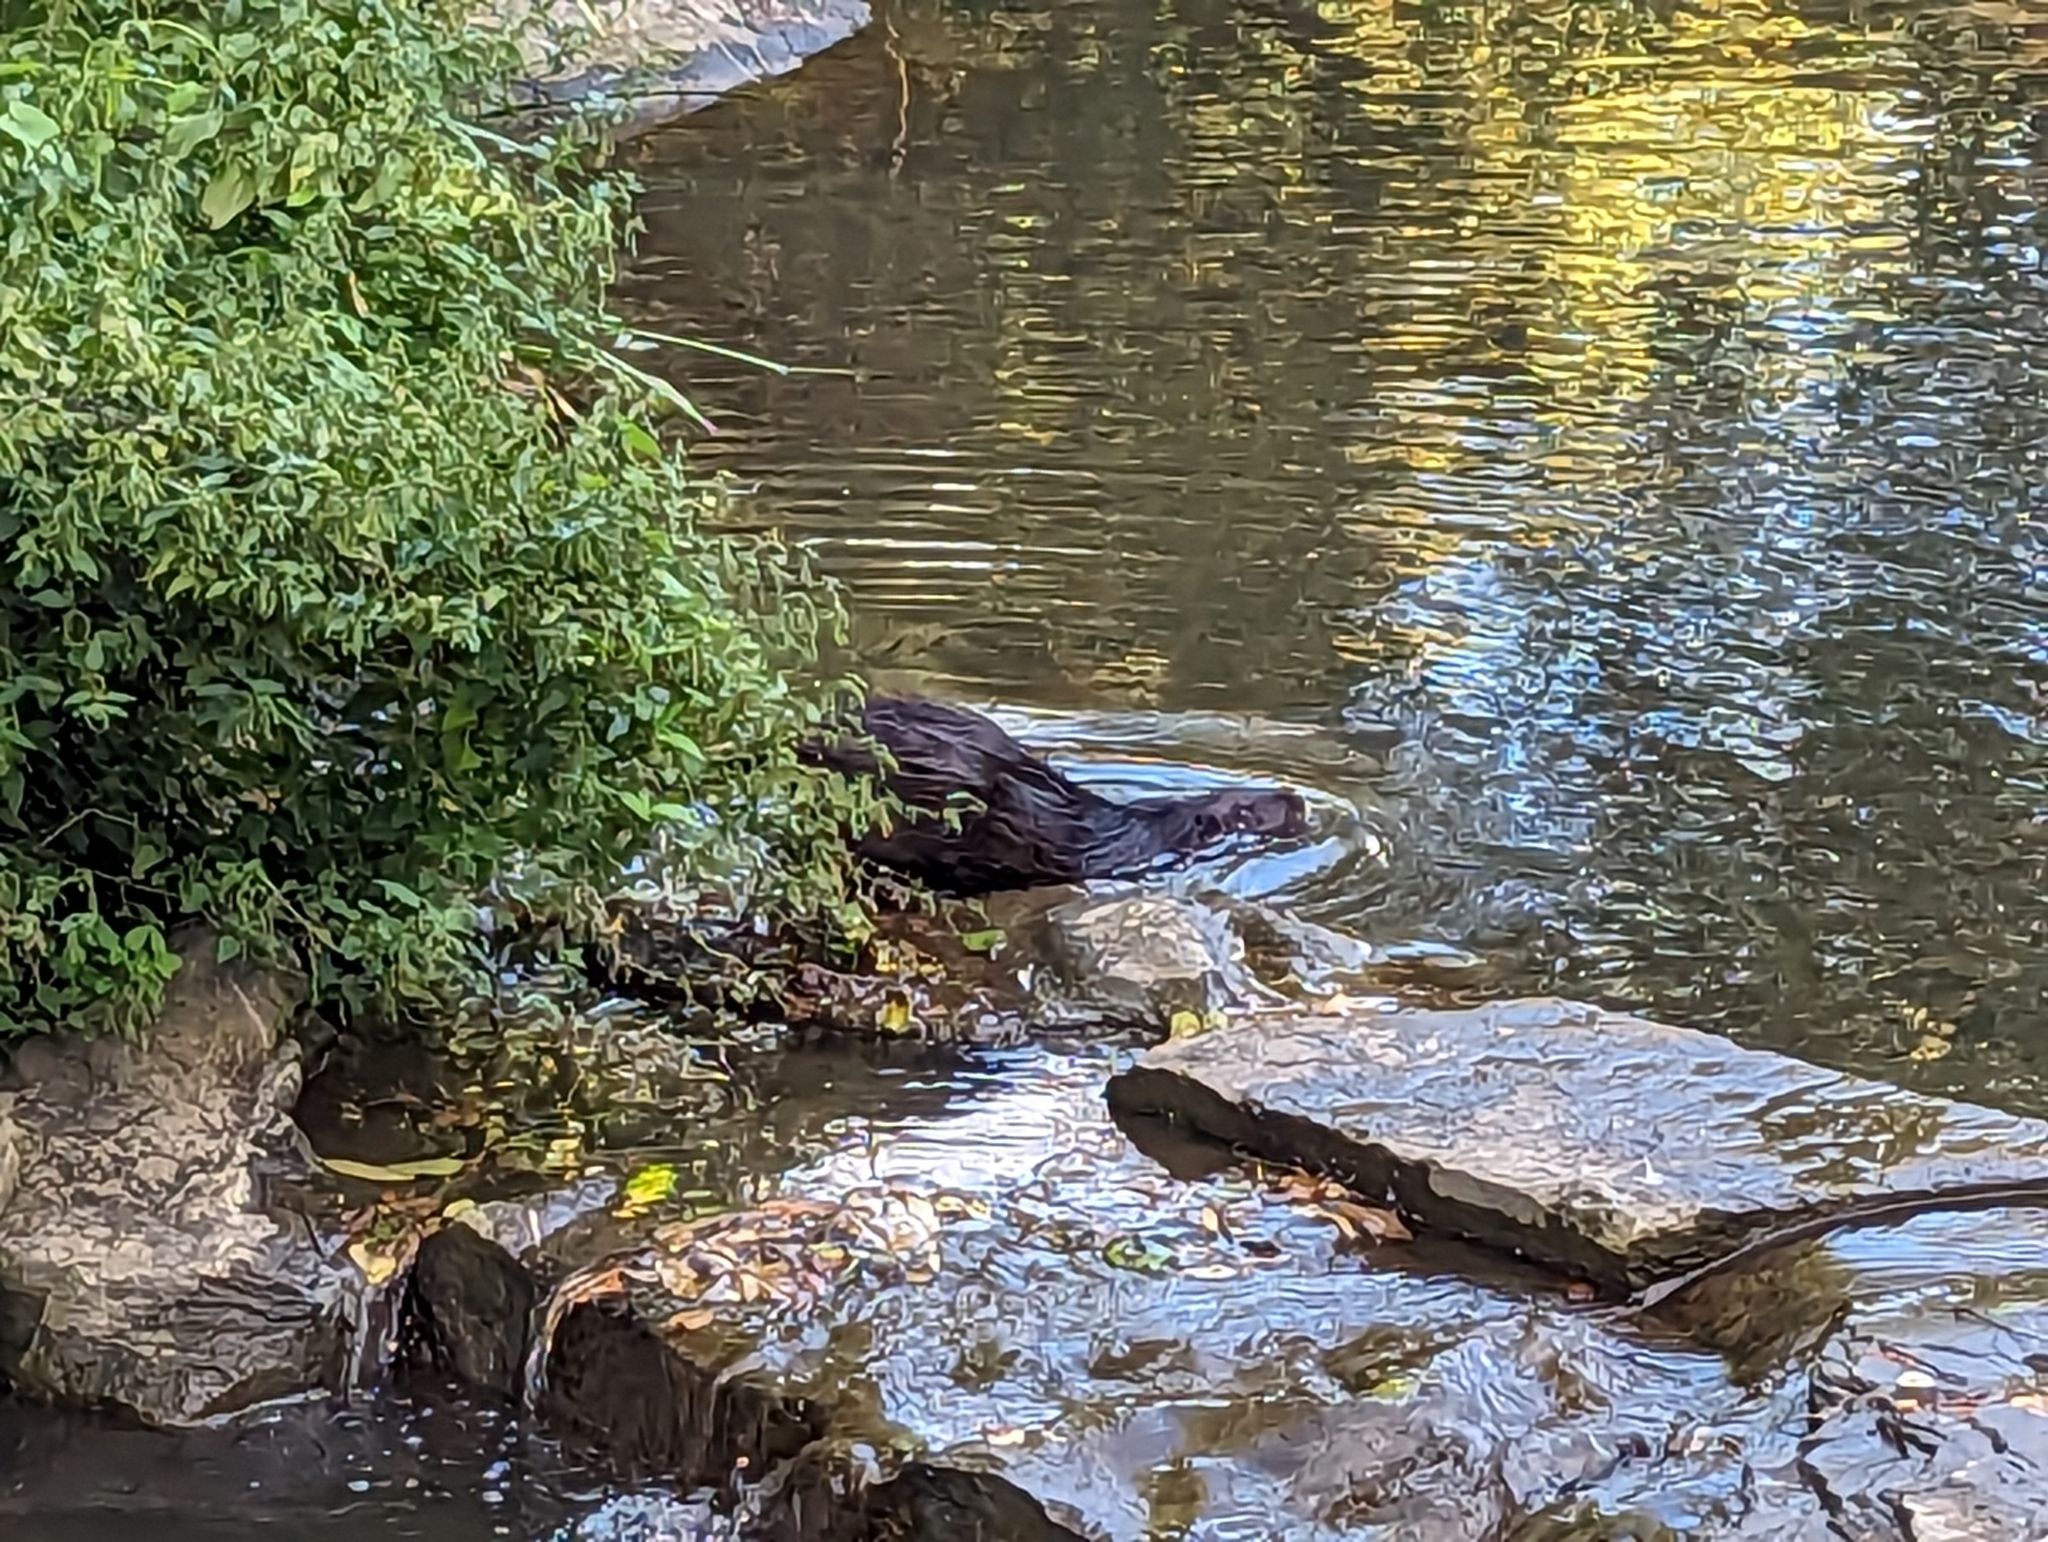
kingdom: Animalia
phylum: Chordata
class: Mammalia
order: Rodentia
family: Myocastoridae
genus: Myocastor
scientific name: Myocastor coypus
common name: Coypu
